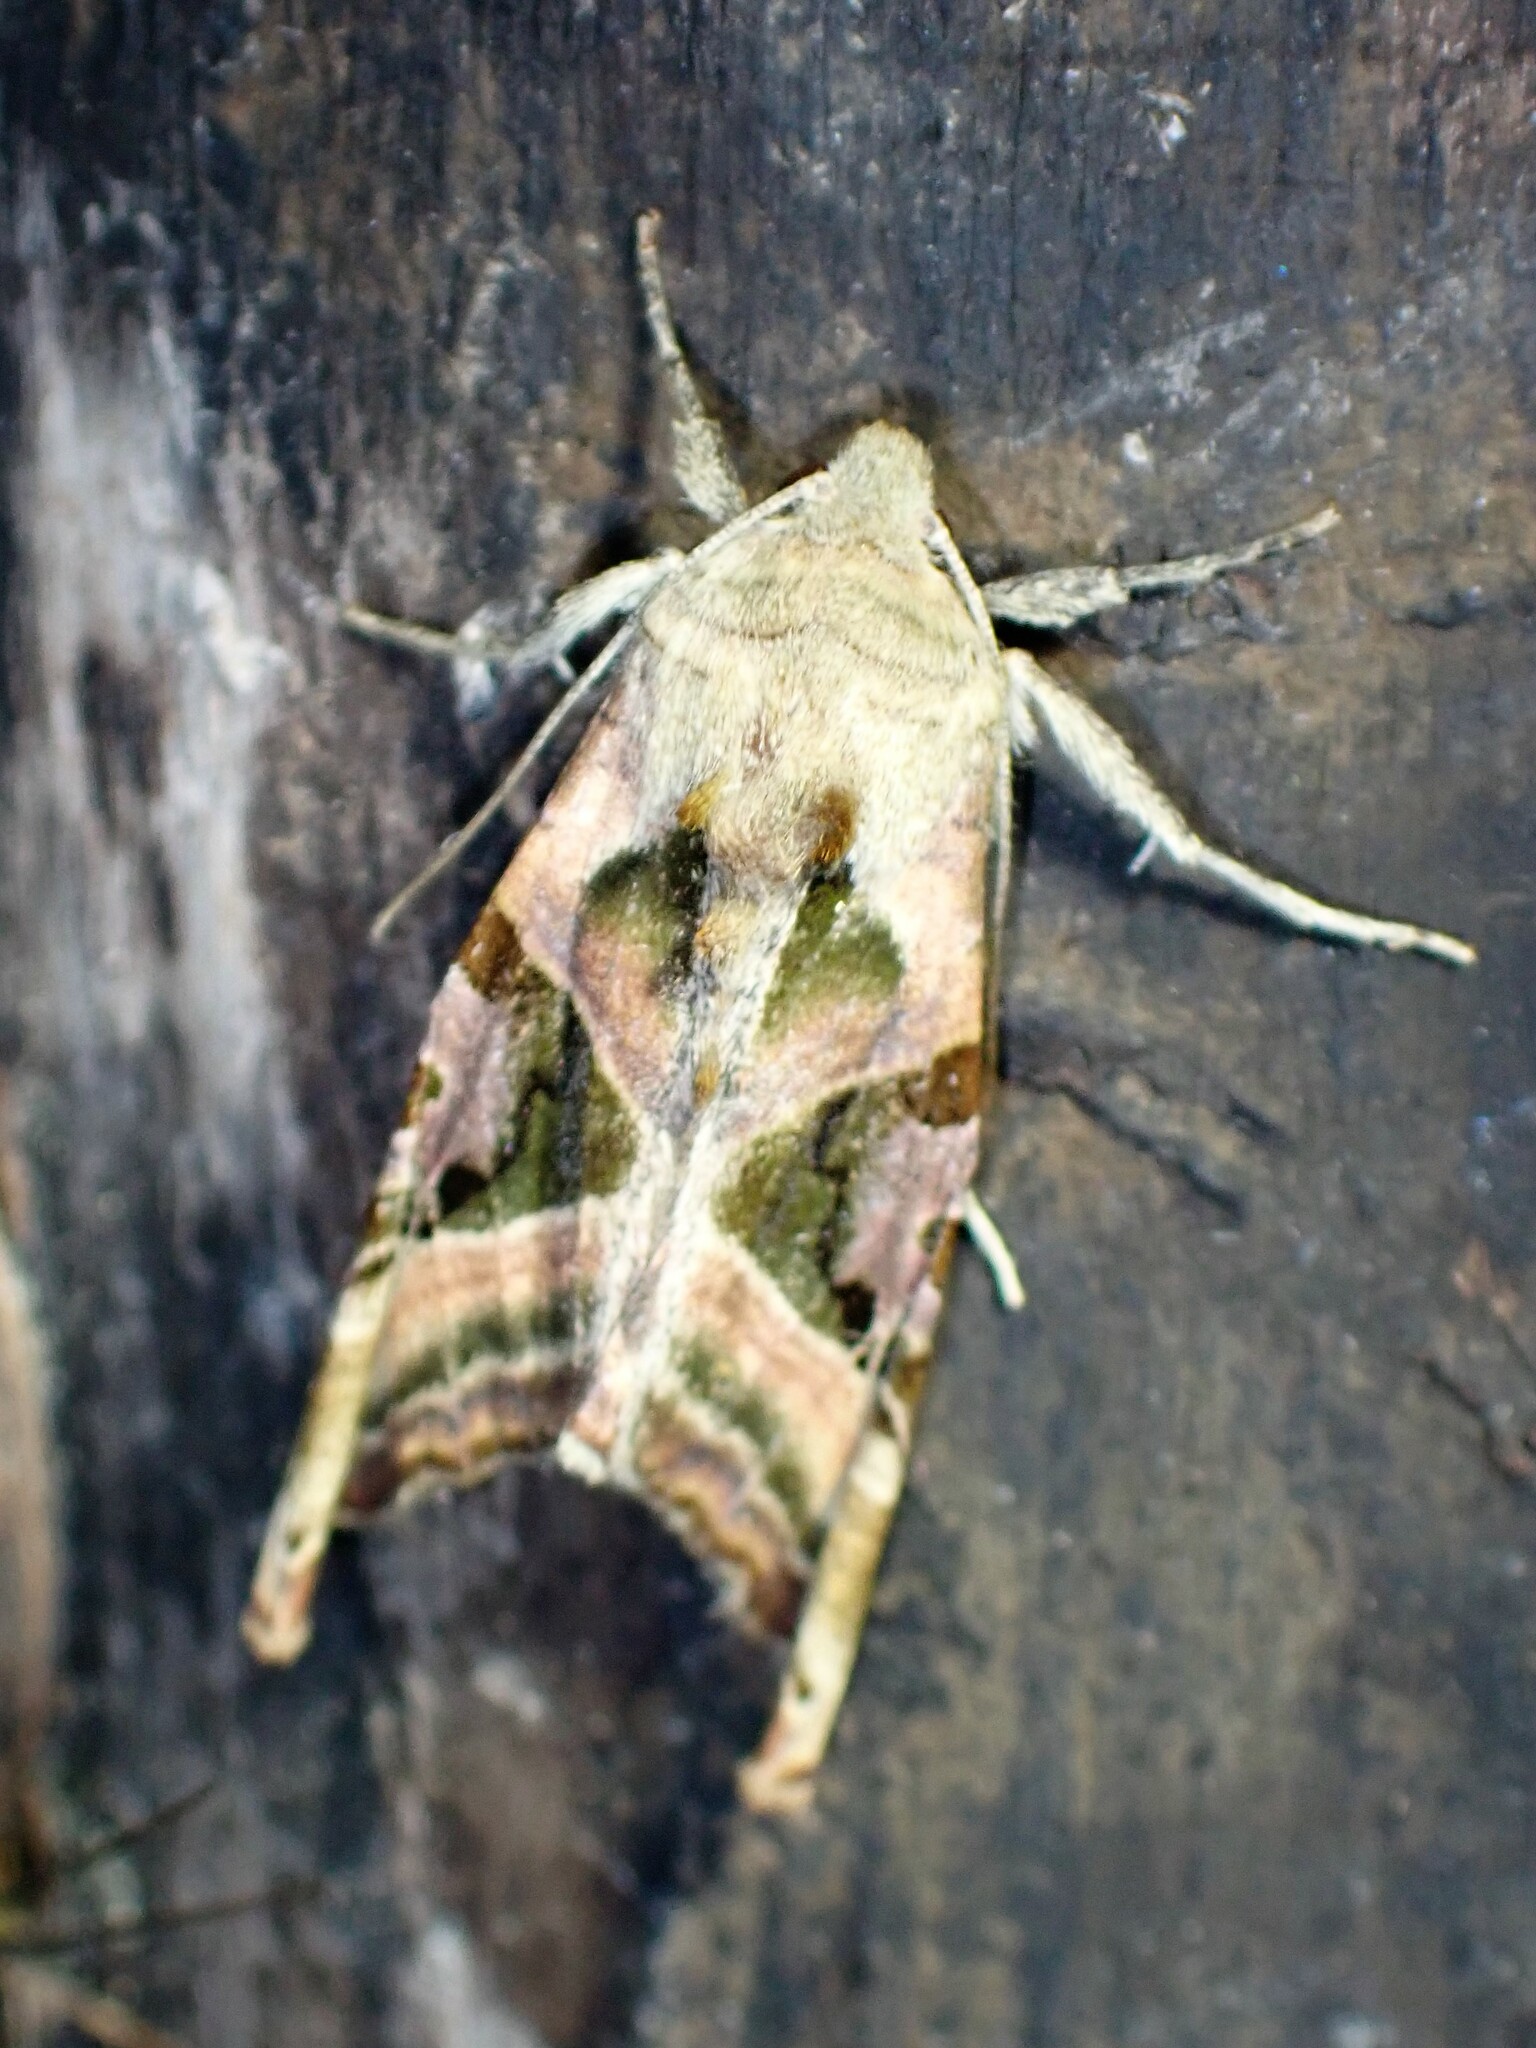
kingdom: Animalia
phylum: Arthropoda
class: Insecta
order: Lepidoptera
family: Noctuidae
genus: Phlogophora
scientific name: Phlogophora iris
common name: Olive angle shades
